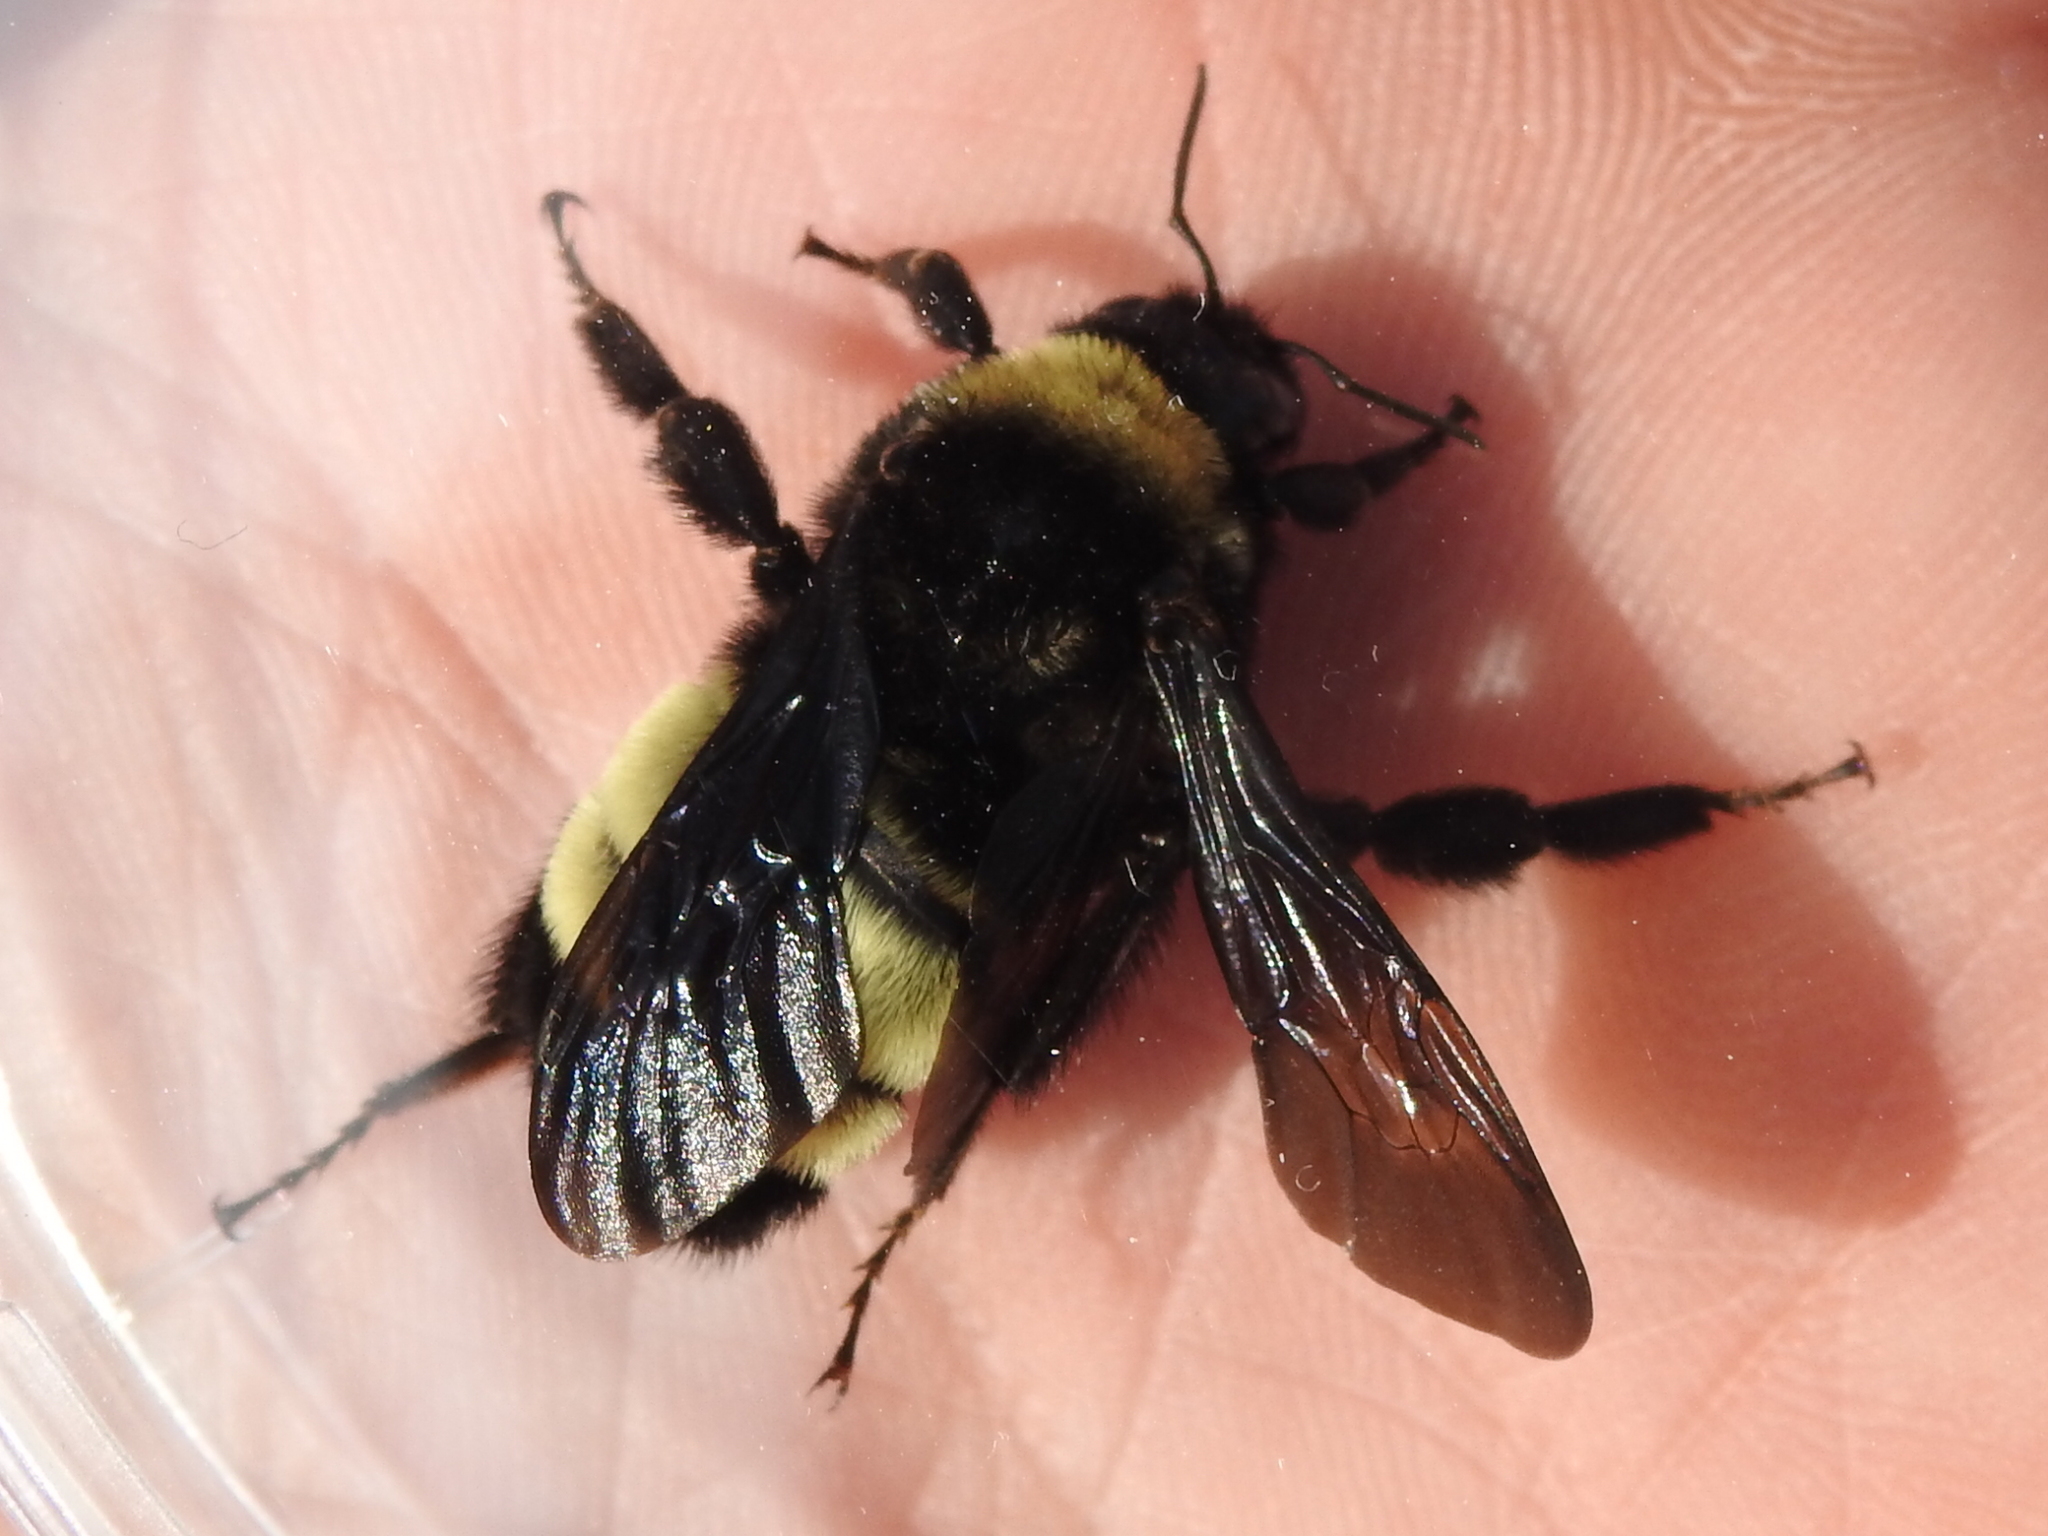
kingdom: Animalia
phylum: Arthropoda
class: Insecta
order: Hymenoptera
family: Apidae
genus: Bombus
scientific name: Bombus pensylvanicus
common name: Bumble bee
